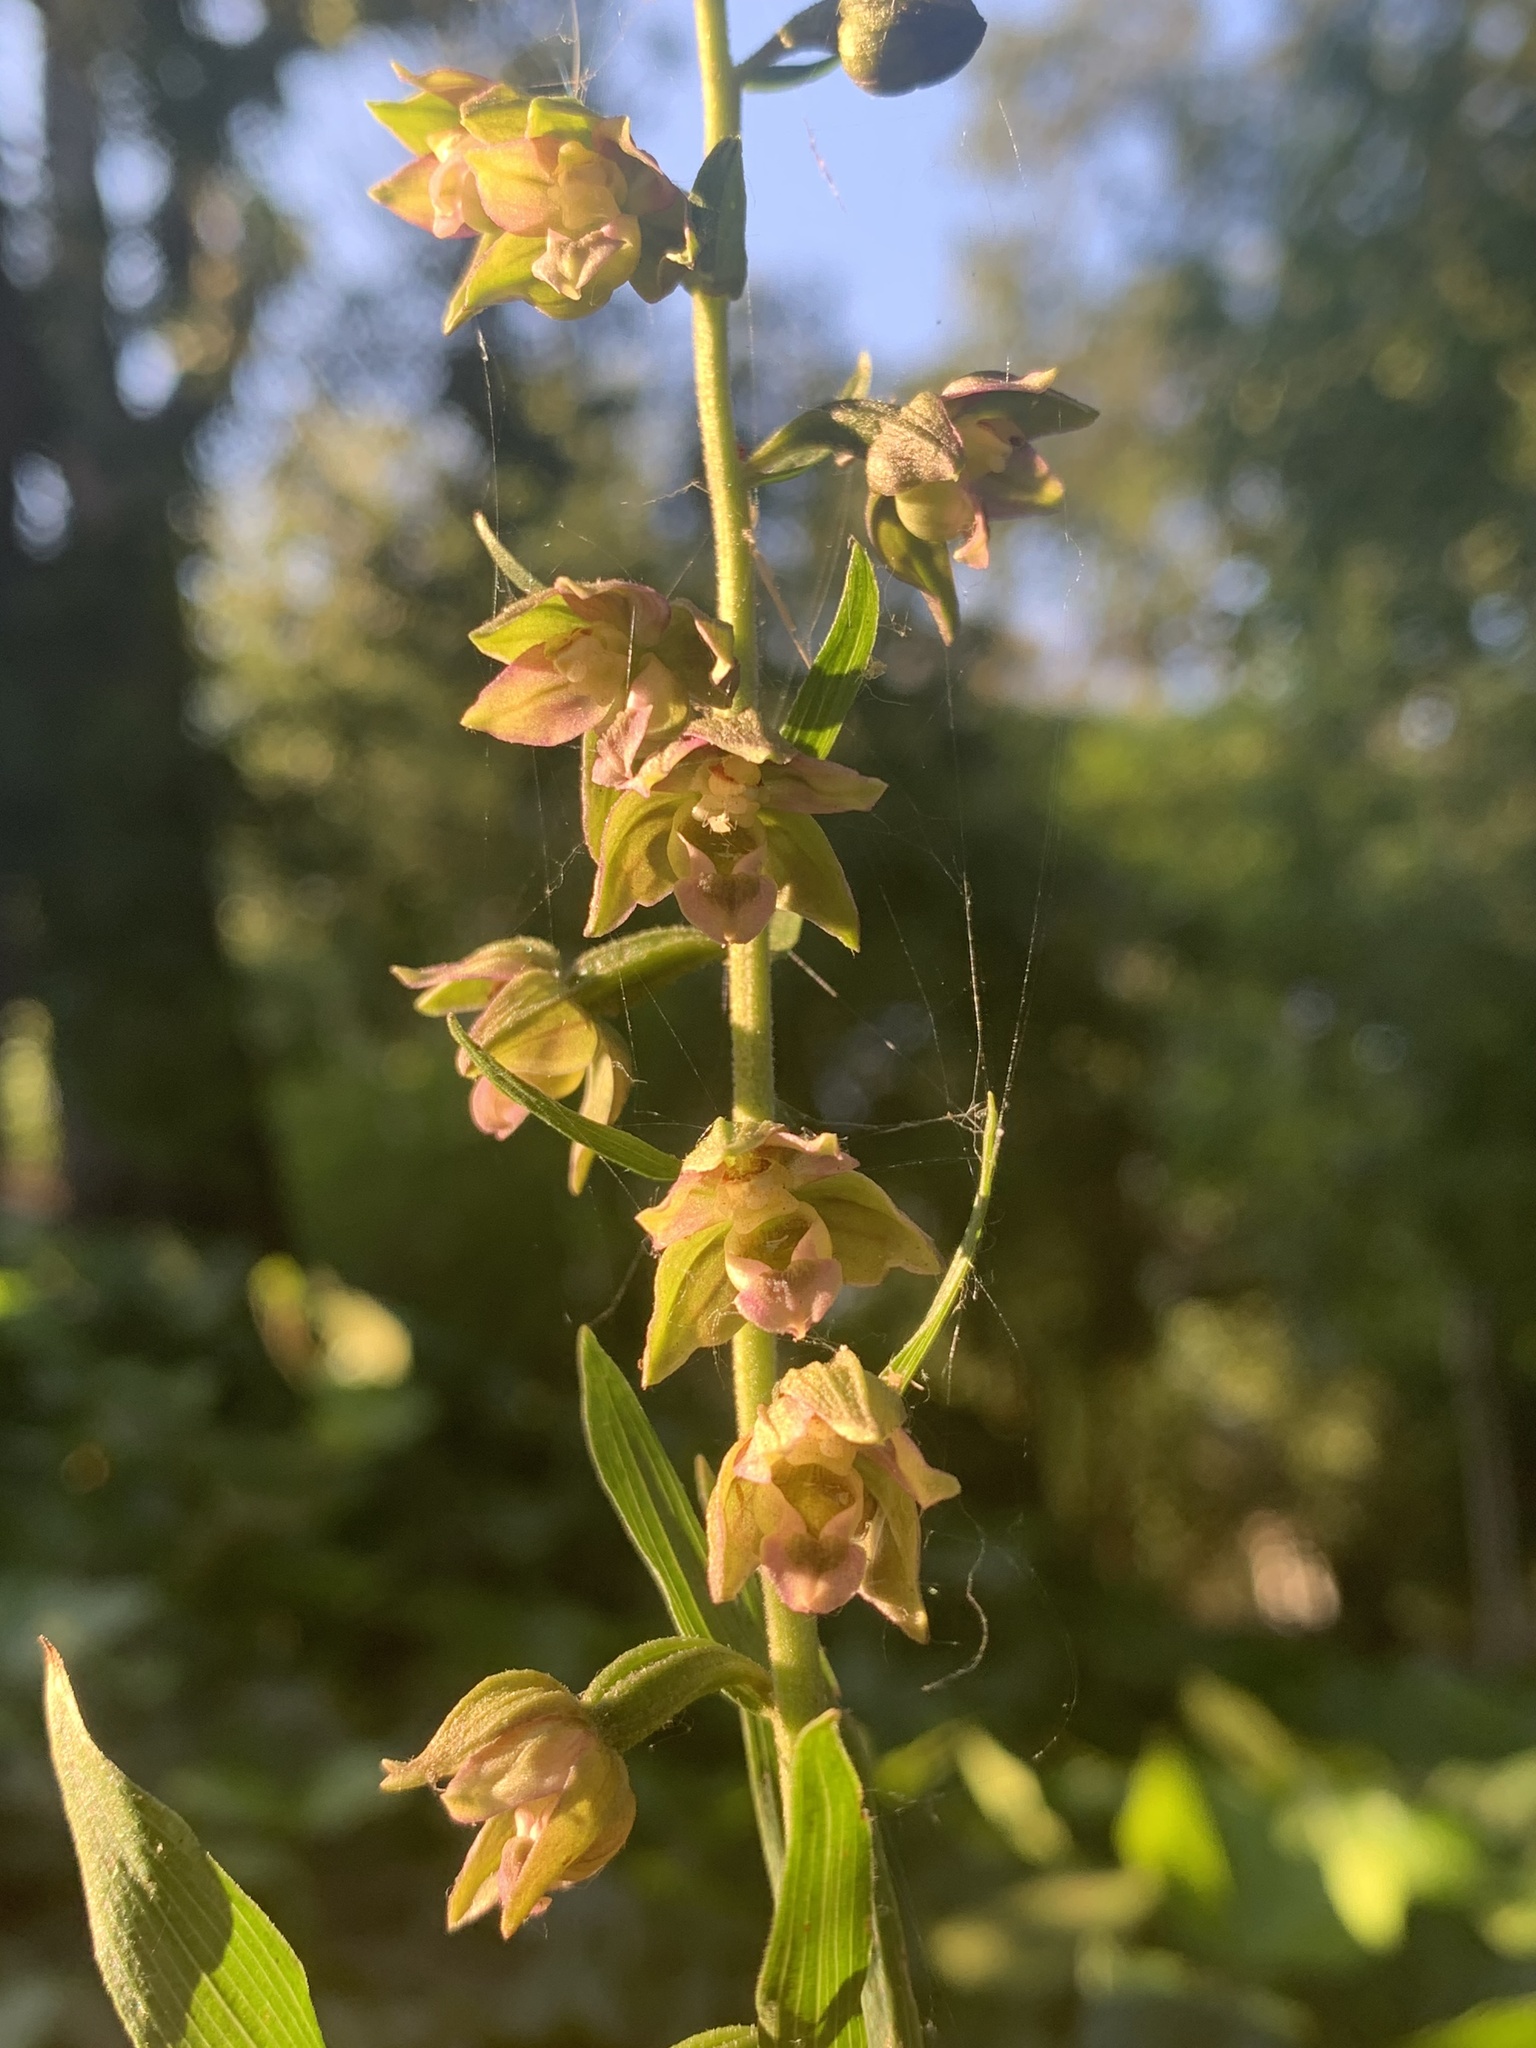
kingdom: Plantae
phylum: Tracheophyta
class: Liliopsida
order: Asparagales
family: Orchidaceae
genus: Epipactis
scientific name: Epipactis helleborine
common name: Broad-leaved helleborine
